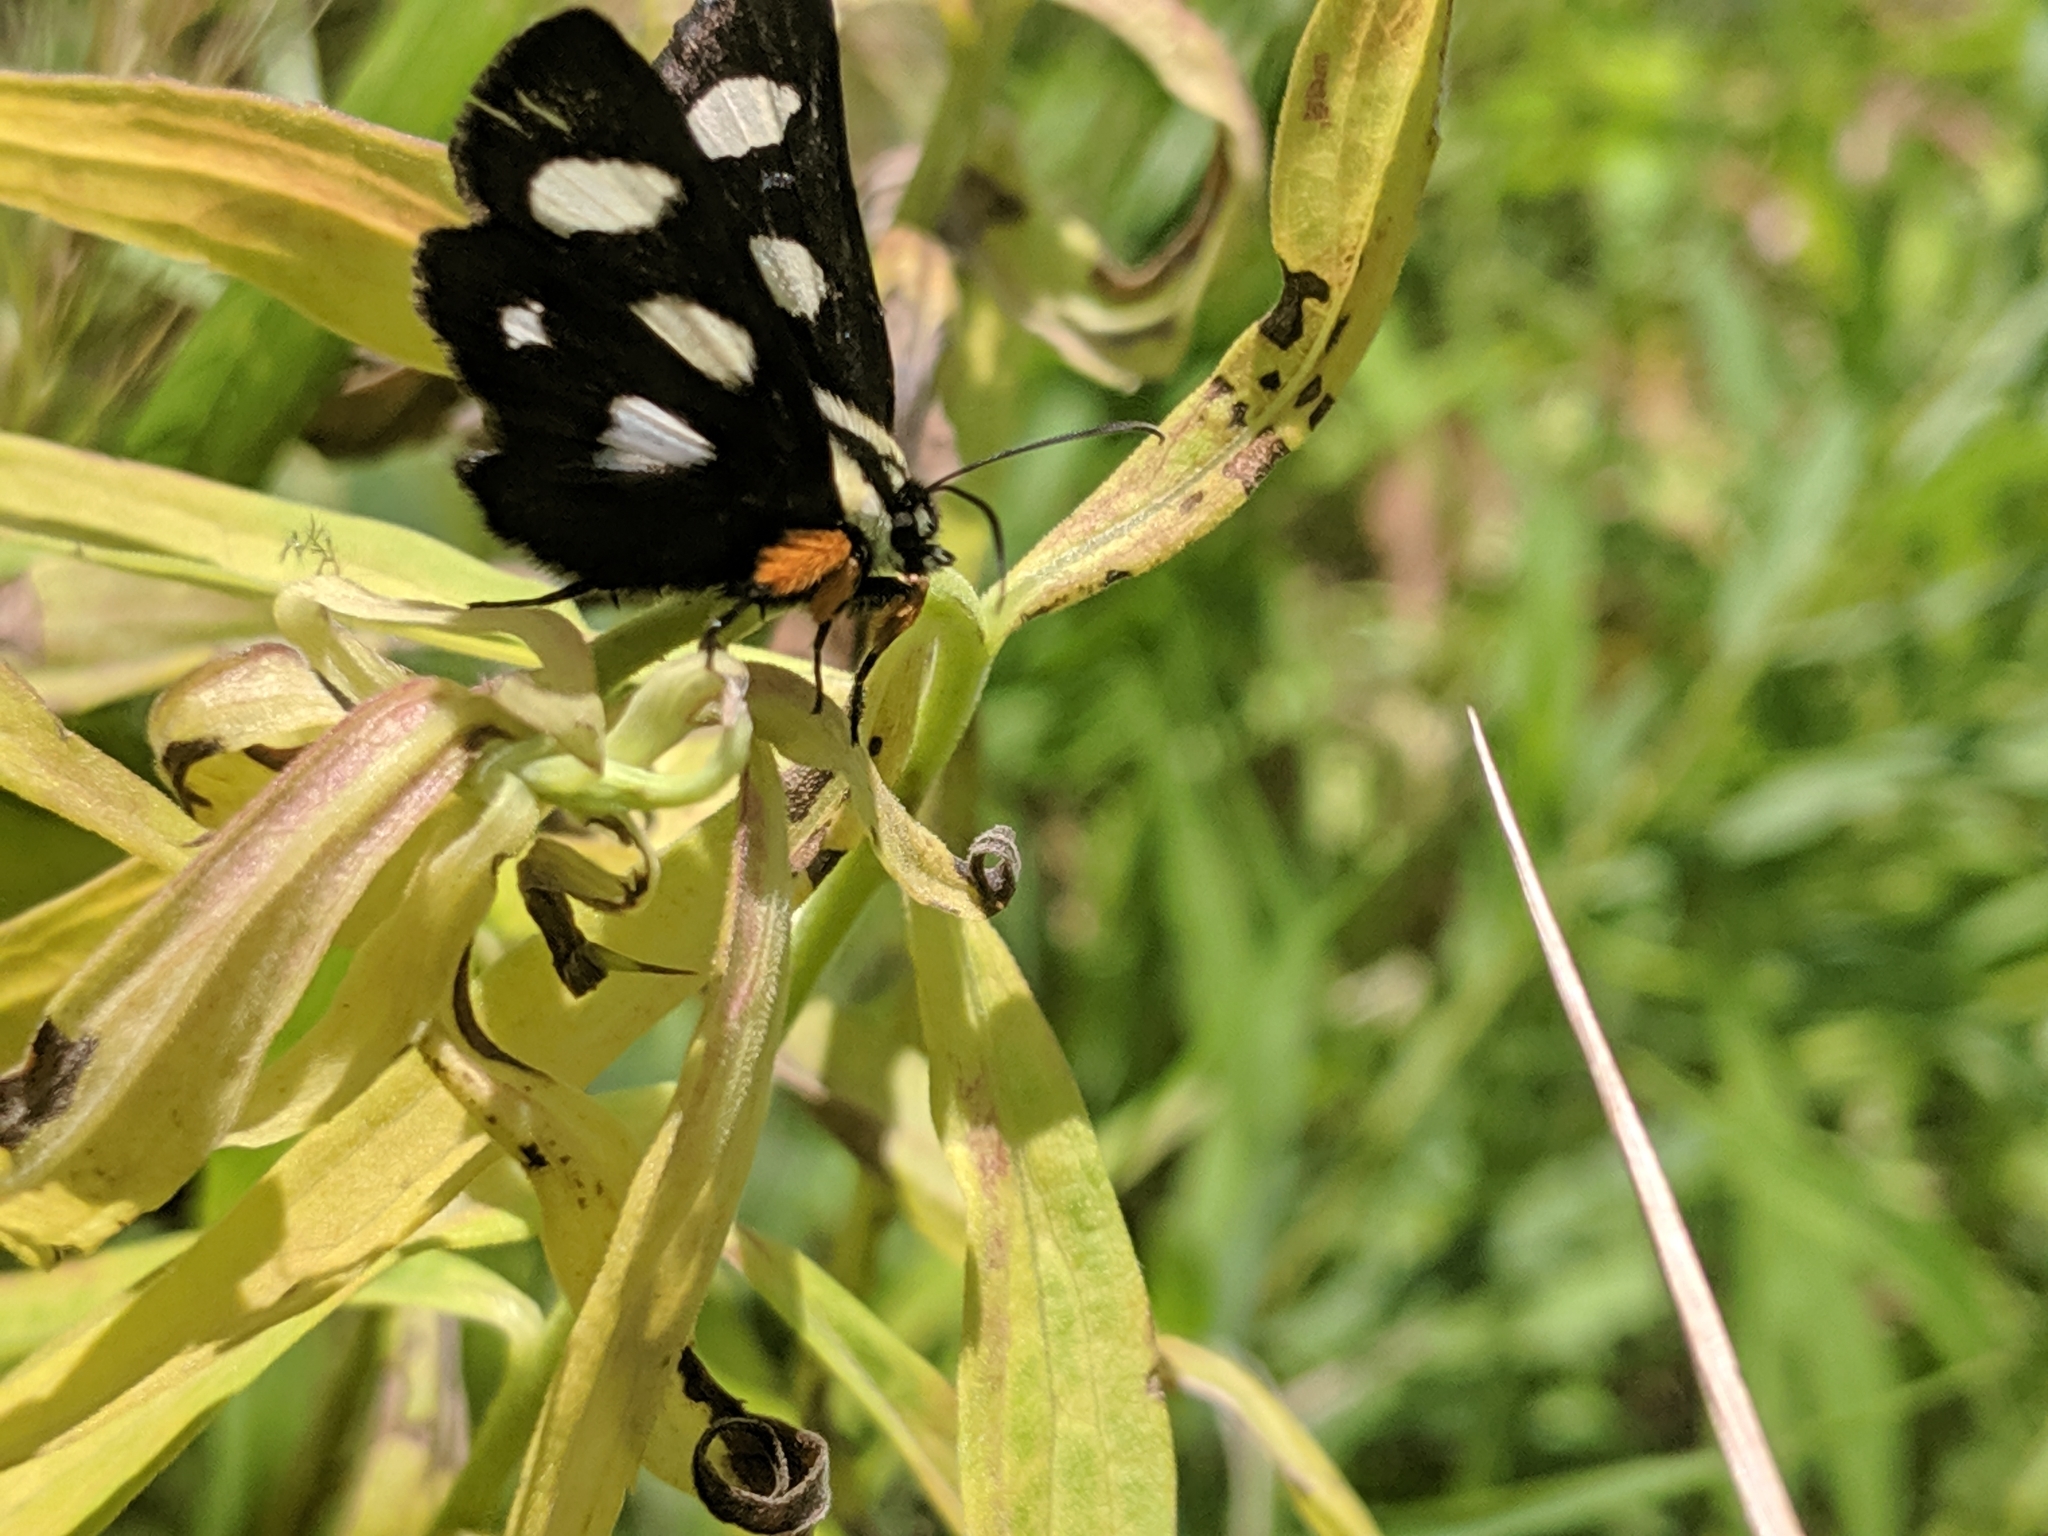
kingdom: Animalia
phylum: Arthropoda
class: Insecta
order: Lepidoptera
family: Noctuidae
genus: Alypia
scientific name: Alypia octomaculata
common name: Eight-spotted forester
